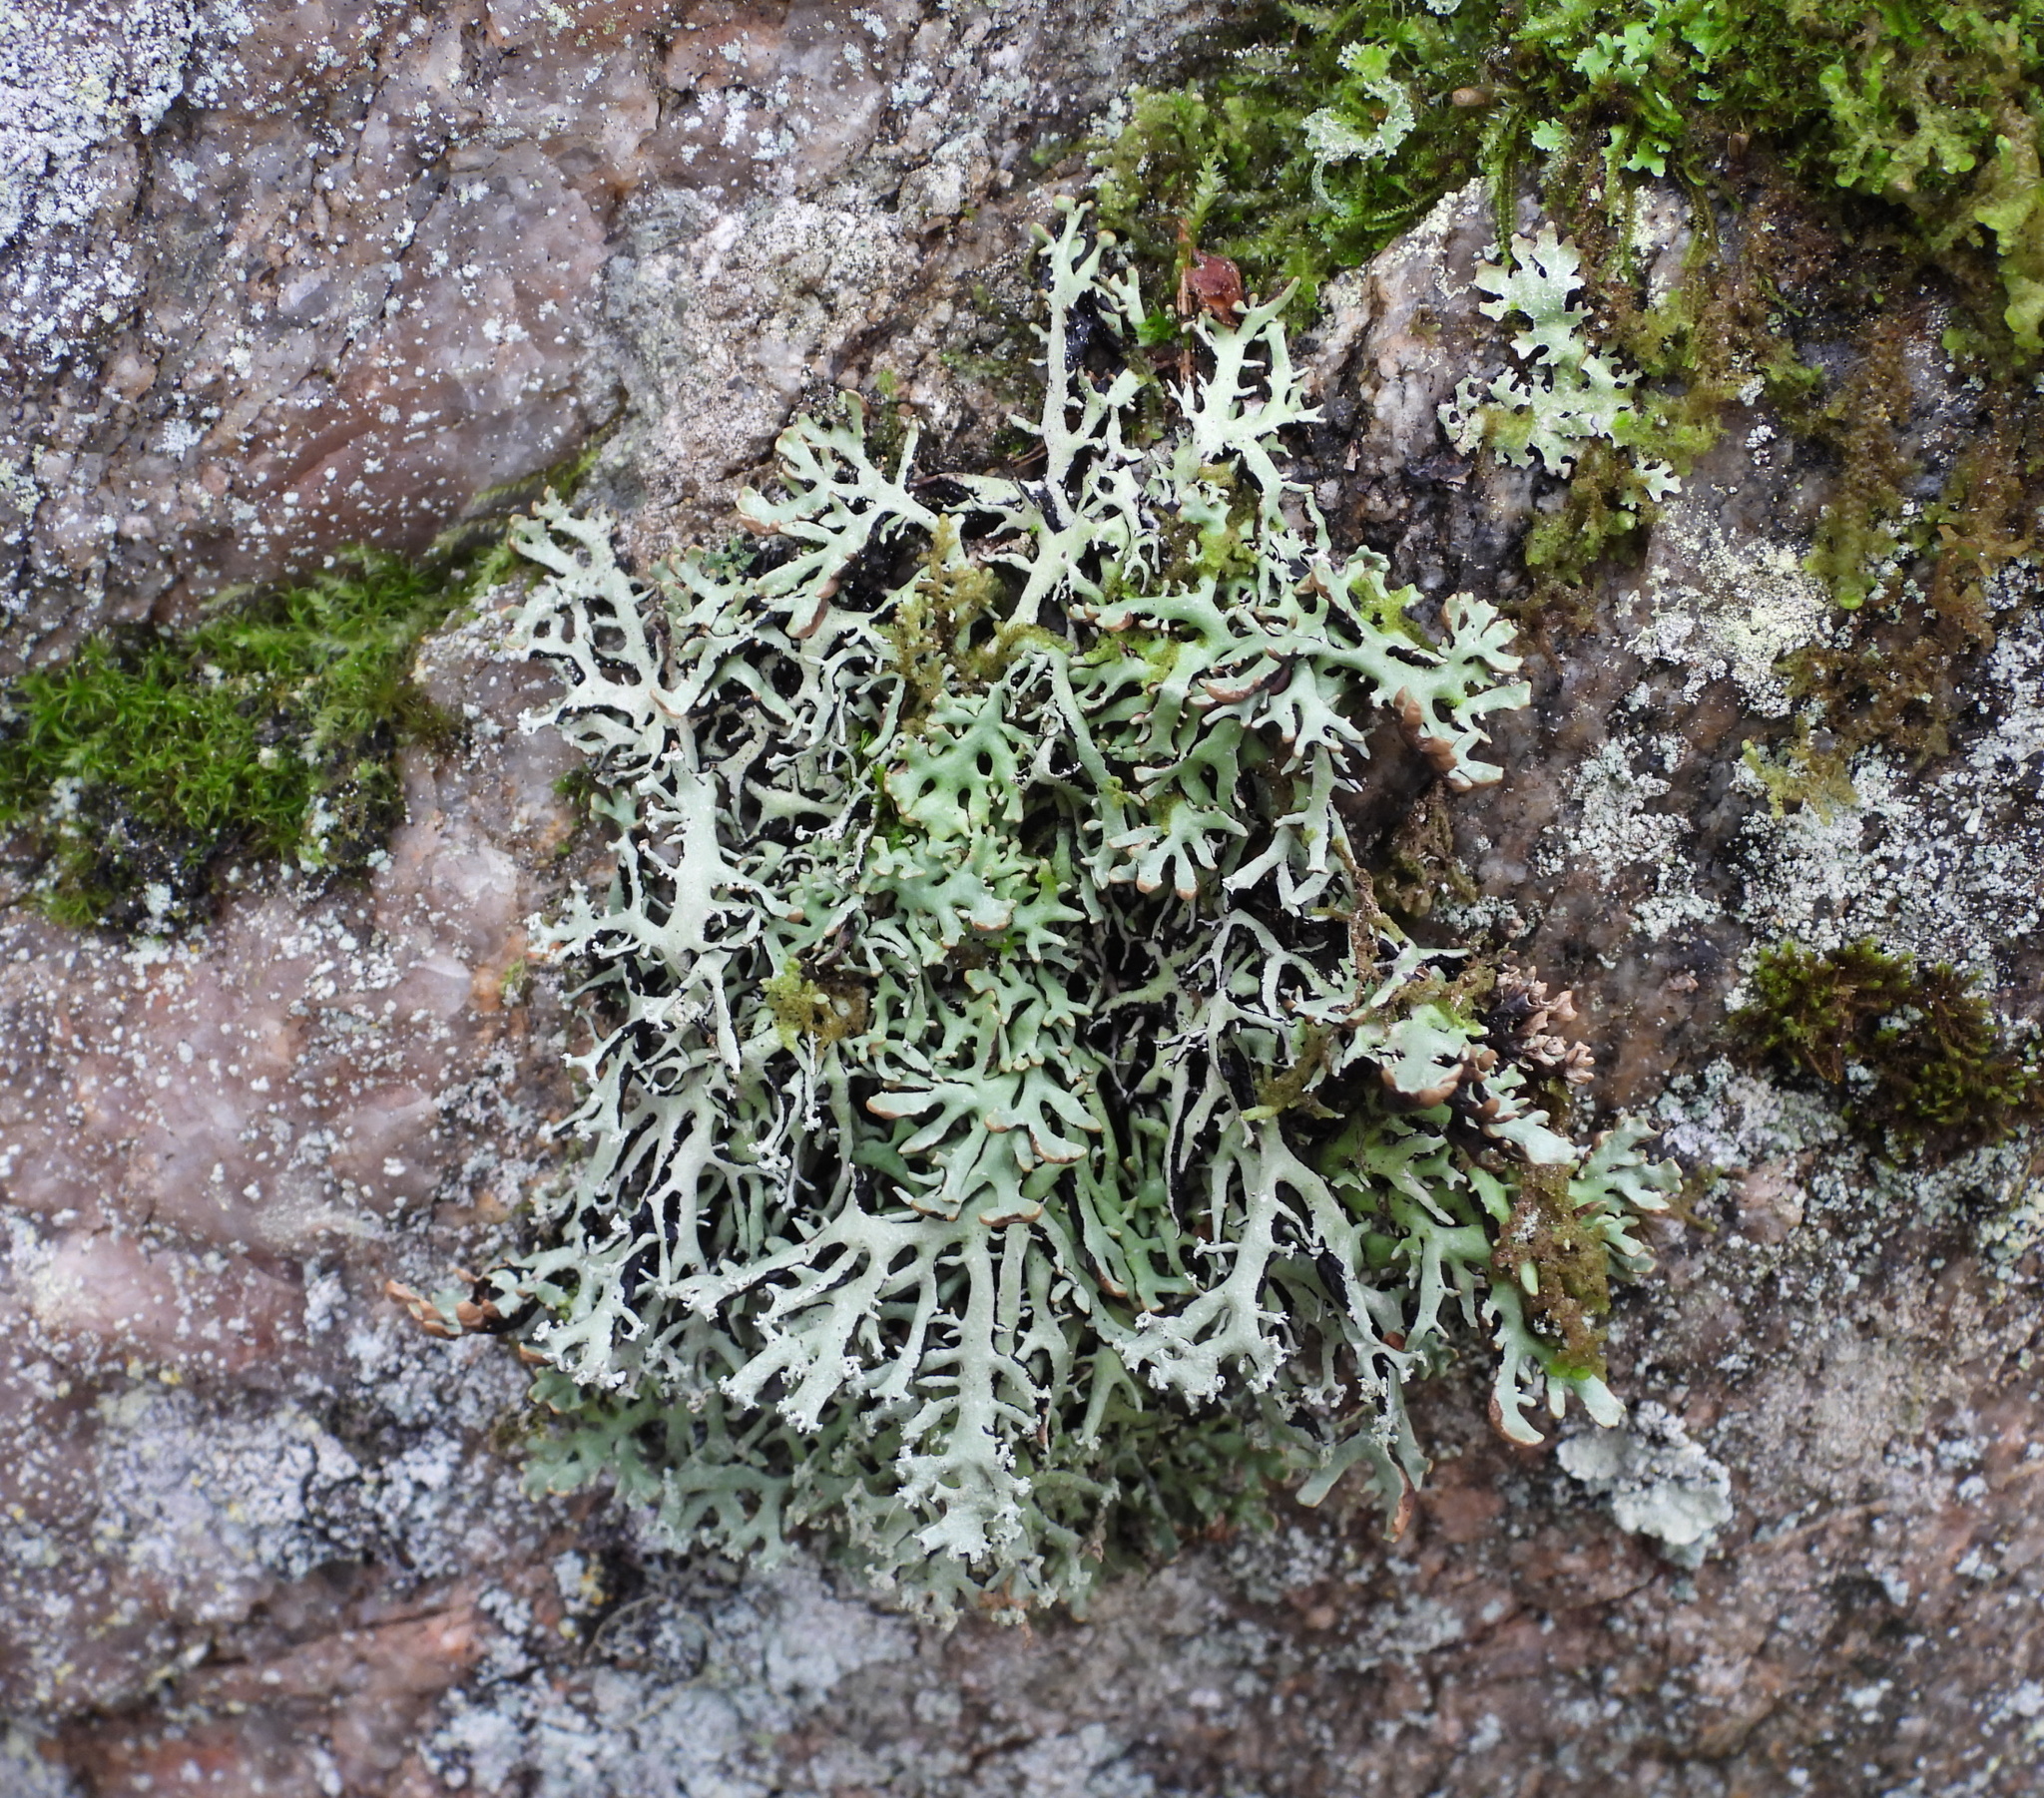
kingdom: Fungi
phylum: Ascomycota
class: Lecanoromycetes
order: Lecanorales
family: Parmeliaceae
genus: Hypogymnia
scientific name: Hypogymnia vittata
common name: Brownish monk's-hood lichen
